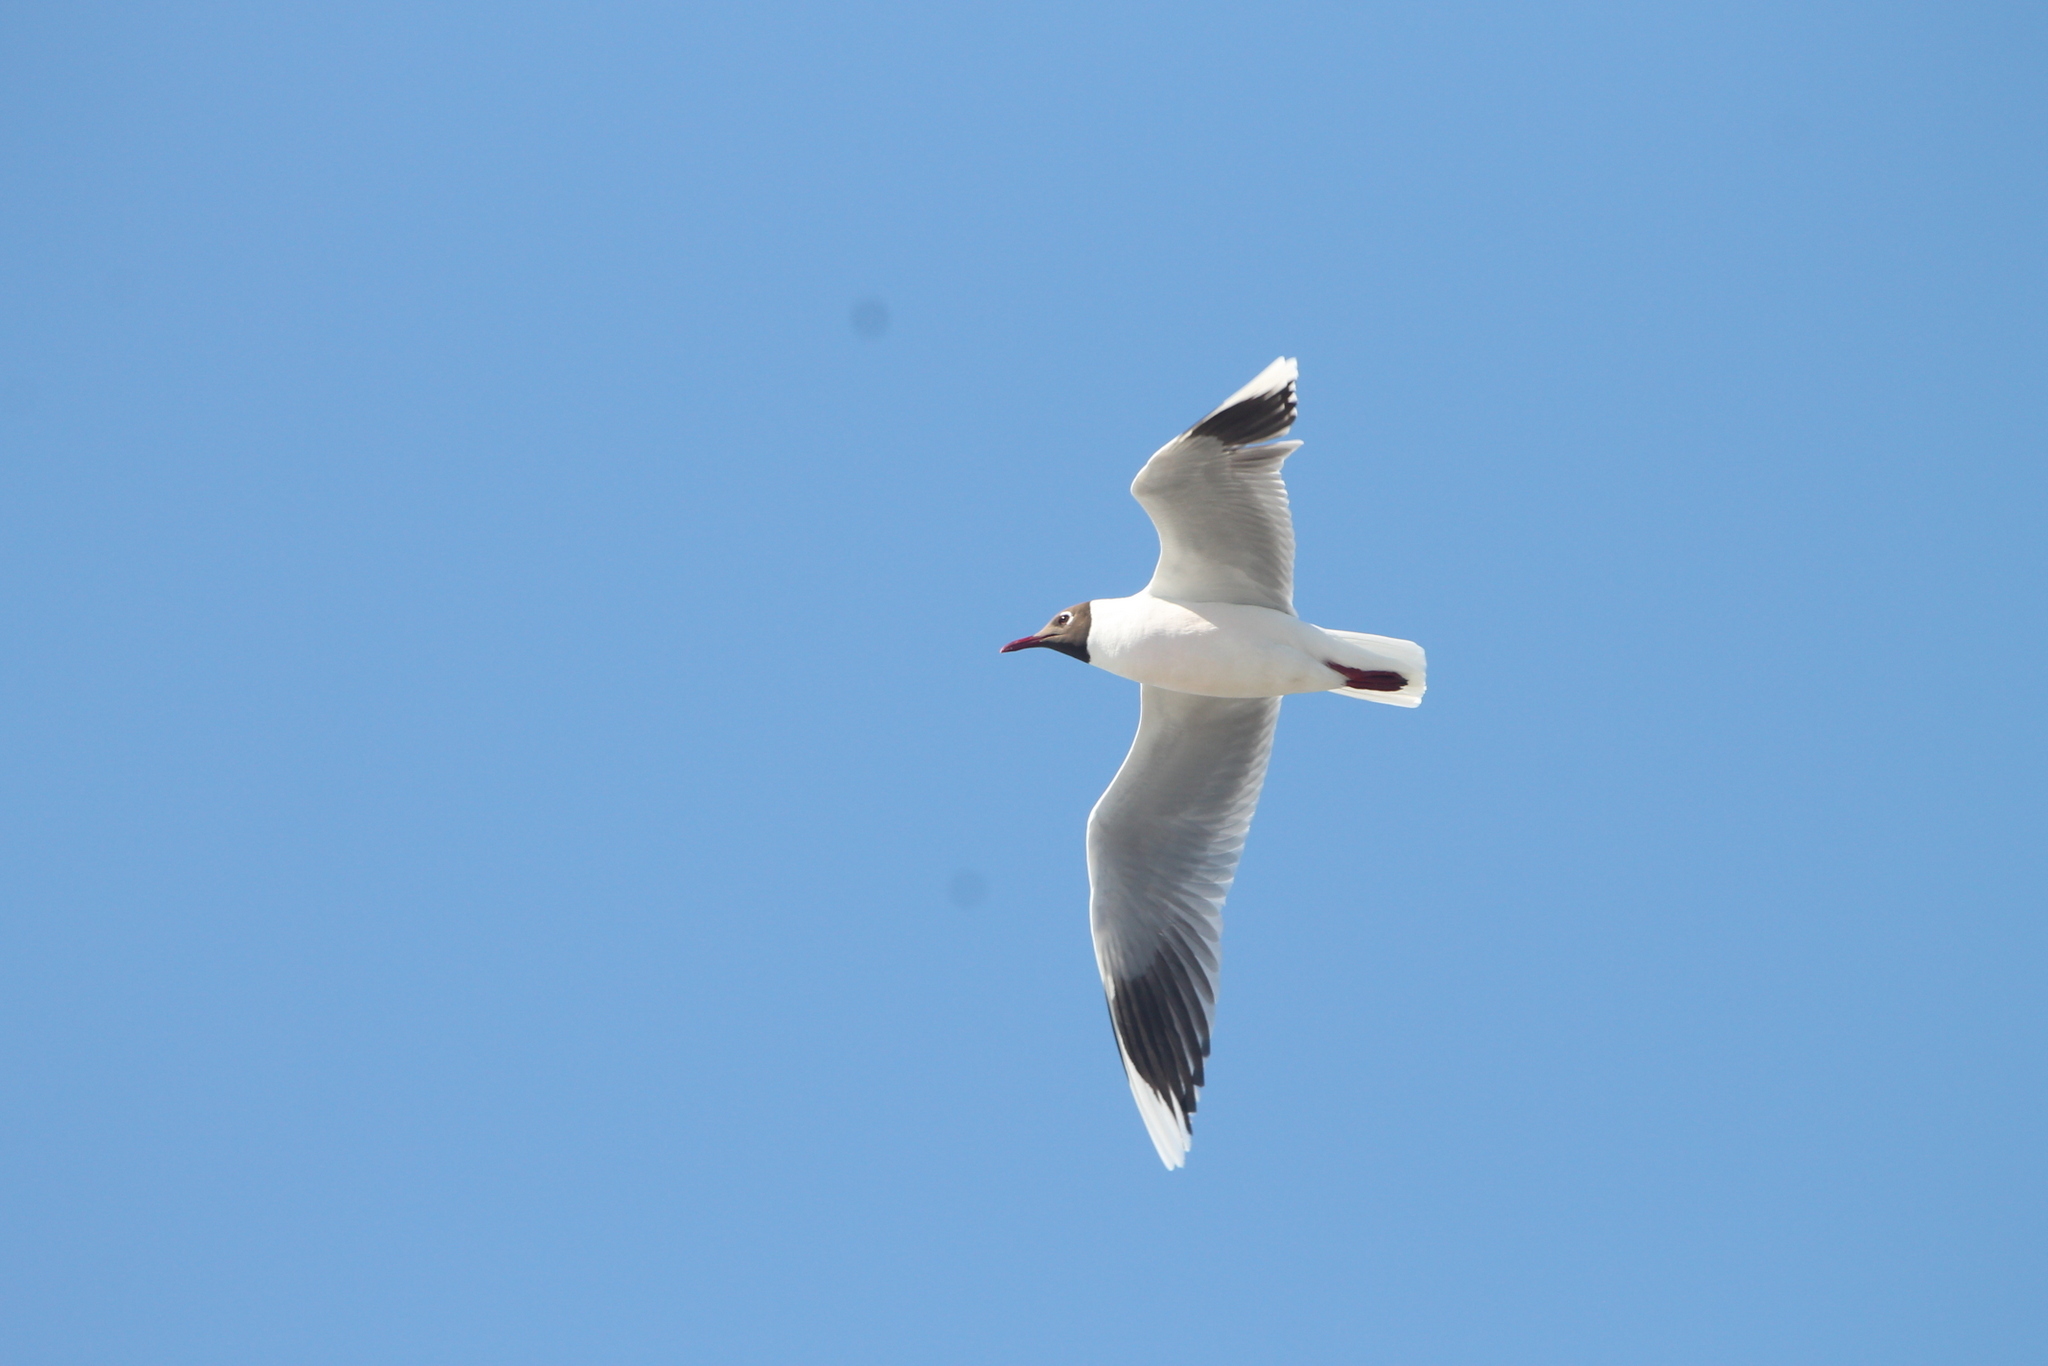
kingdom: Animalia
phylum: Chordata
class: Aves
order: Charadriiformes
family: Laridae
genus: Chroicocephalus
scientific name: Chroicocephalus maculipennis
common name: Brown-hooded gull
